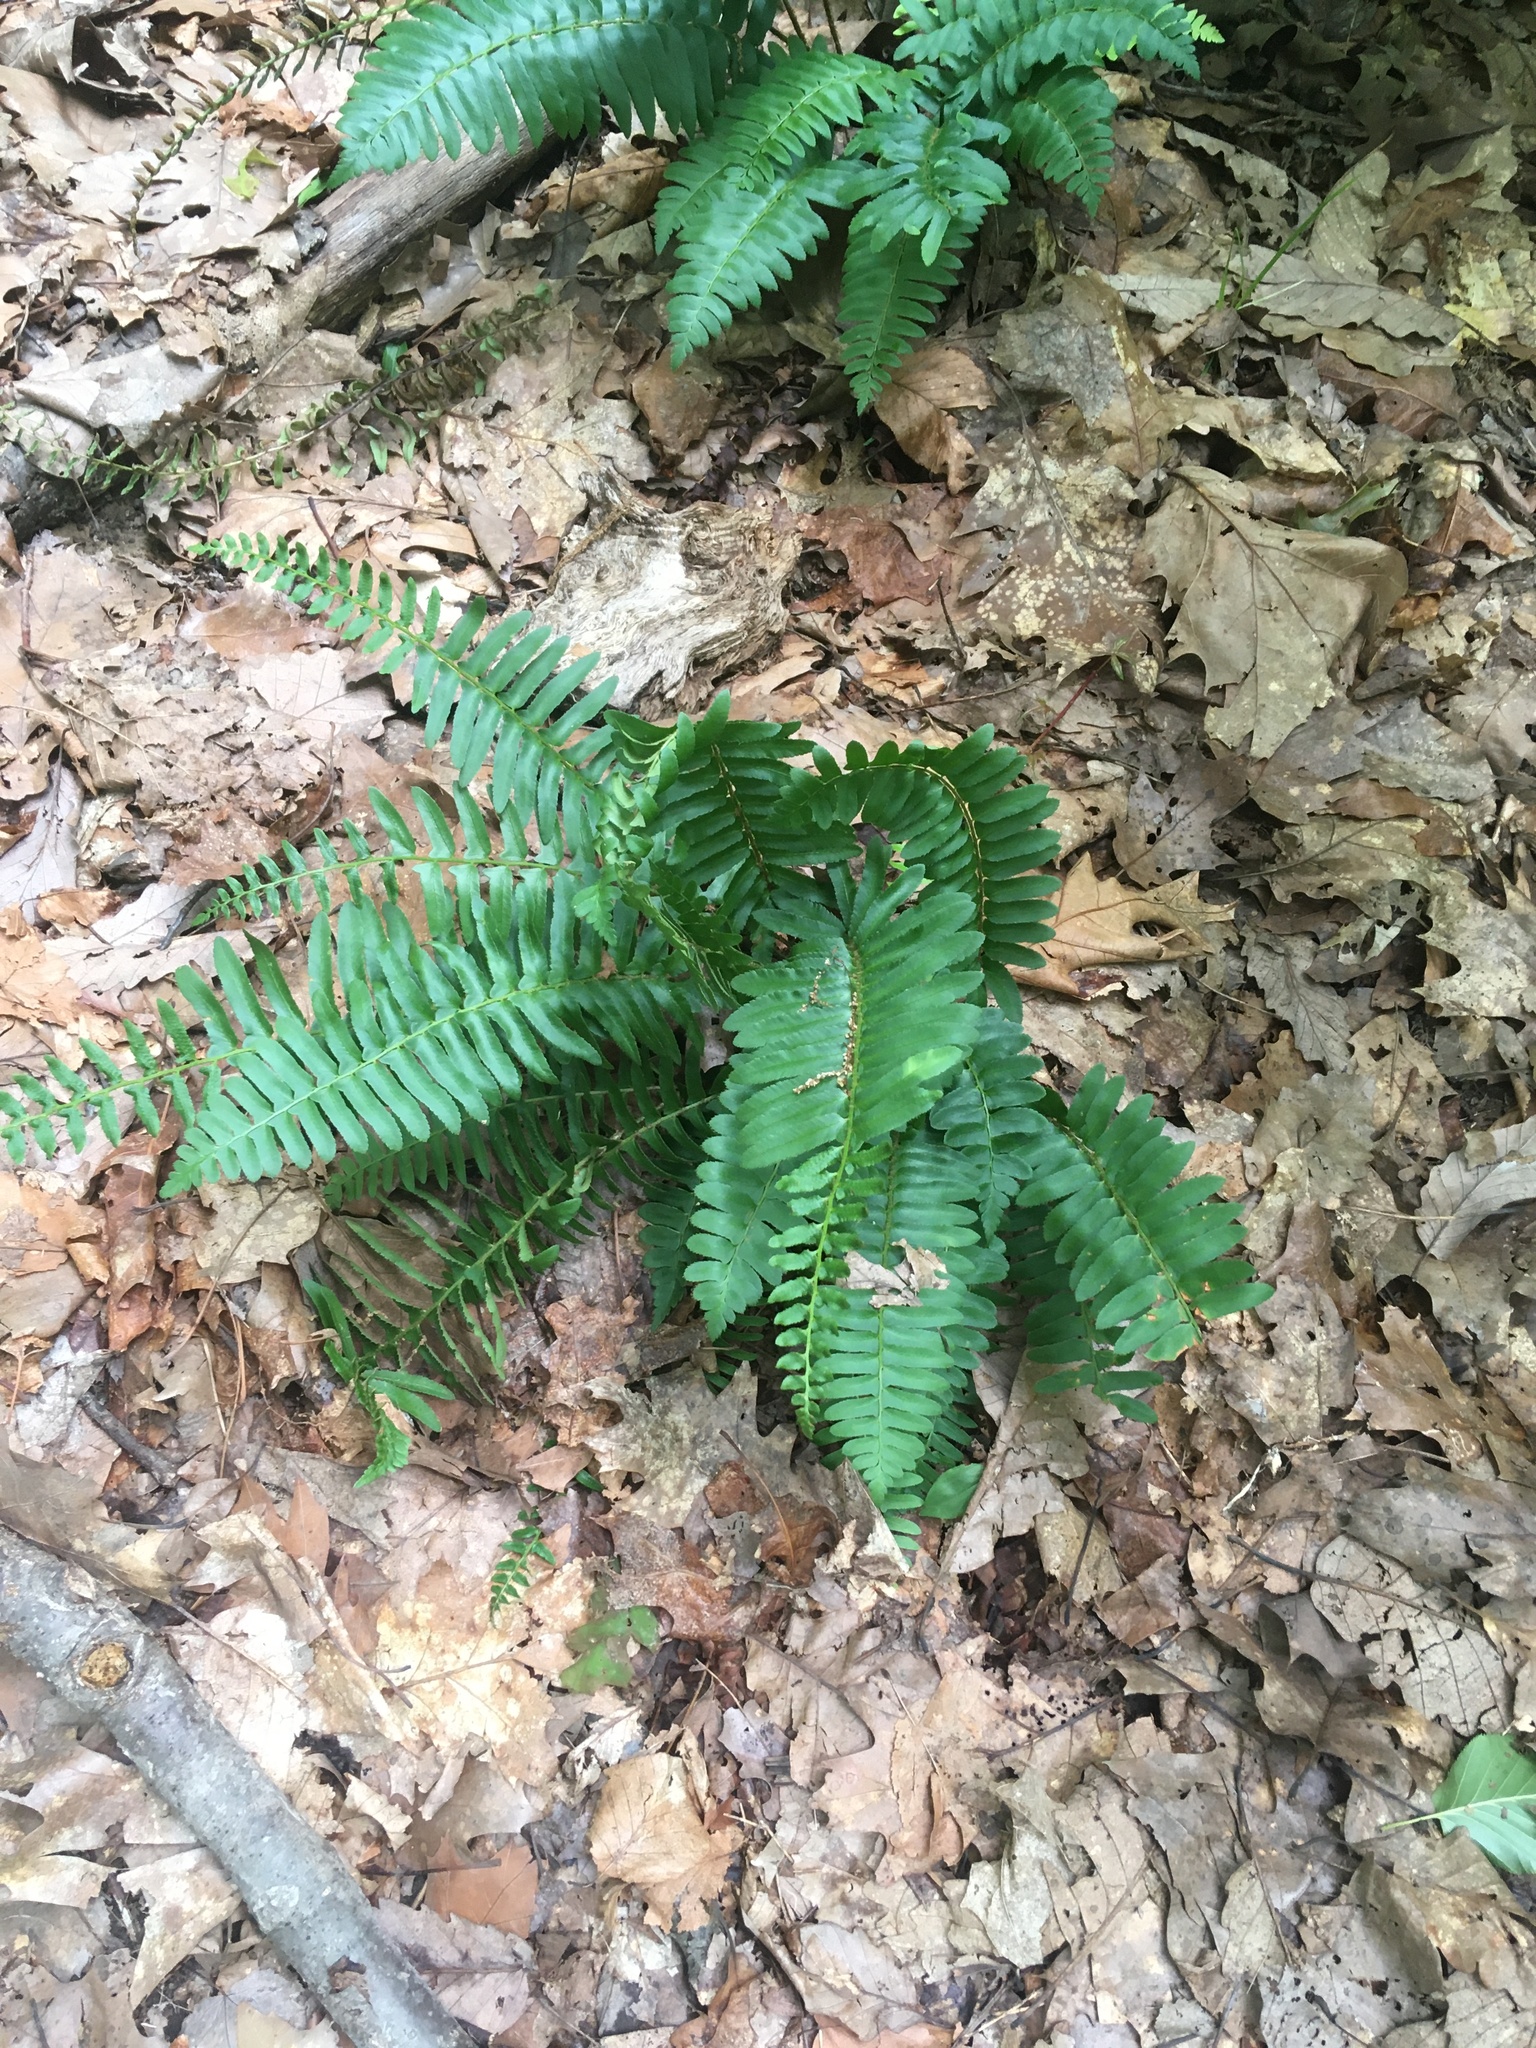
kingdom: Plantae
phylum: Tracheophyta
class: Polypodiopsida
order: Polypodiales
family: Dryopteridaceae
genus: Polystichum
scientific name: Polystichum acrostichoides
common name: Christmas fern
